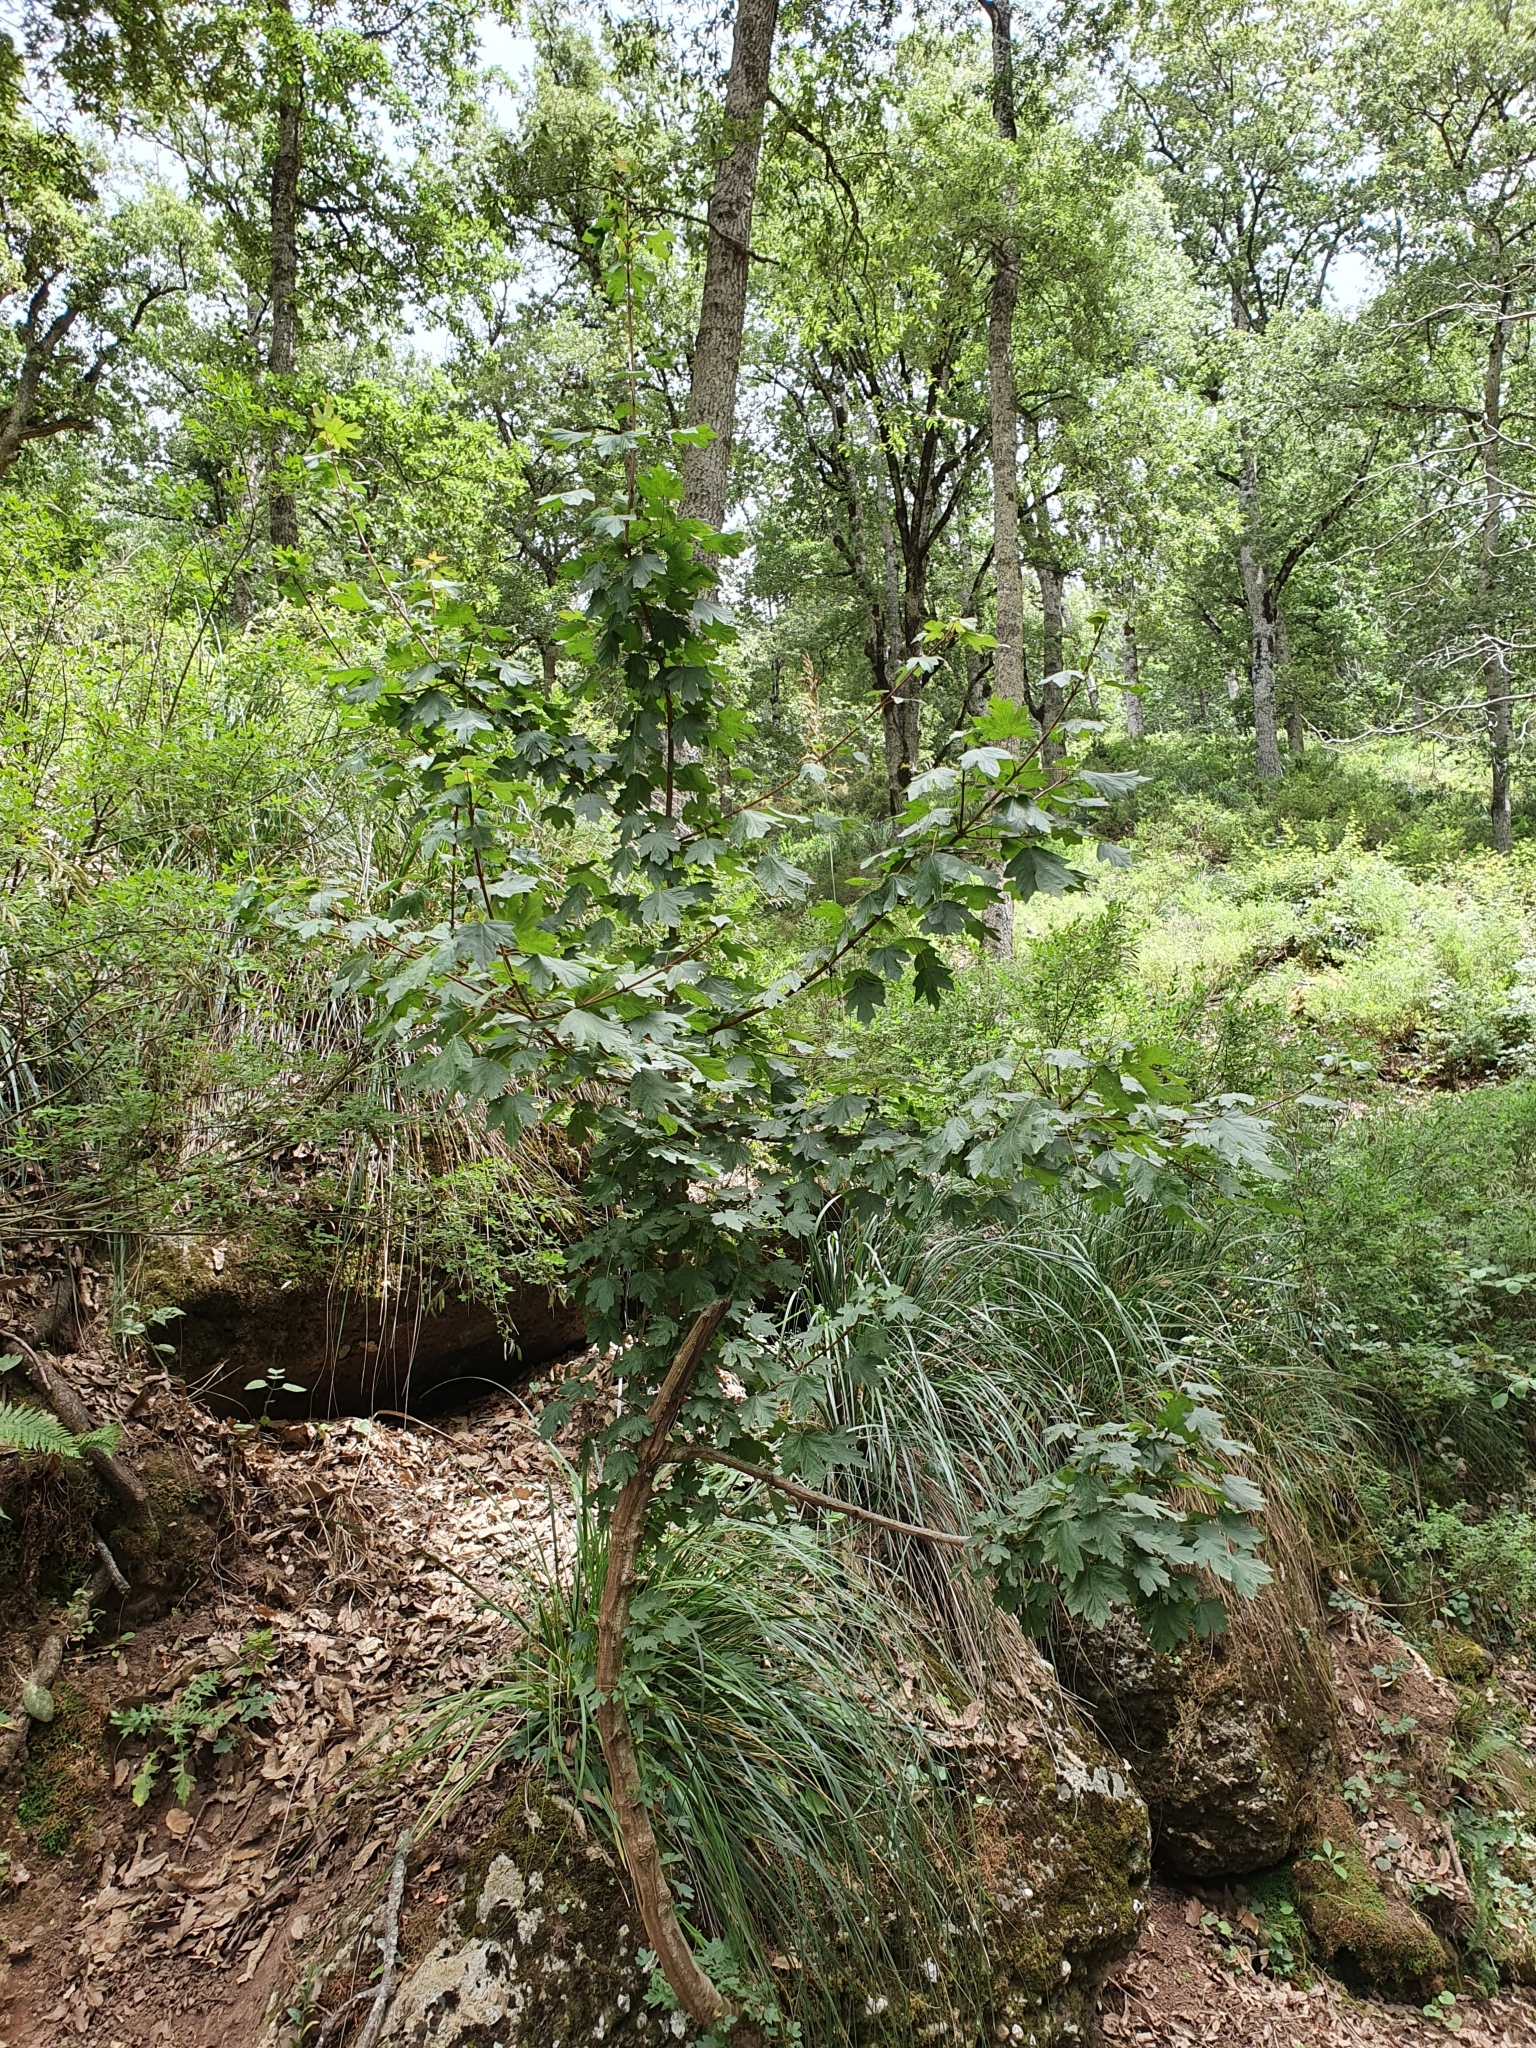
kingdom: Plantae
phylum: Tracheophyta
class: Magnoliopsida
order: Sapindales
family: Sapindaceae
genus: Acer
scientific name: Acer campestre
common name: Field maple
